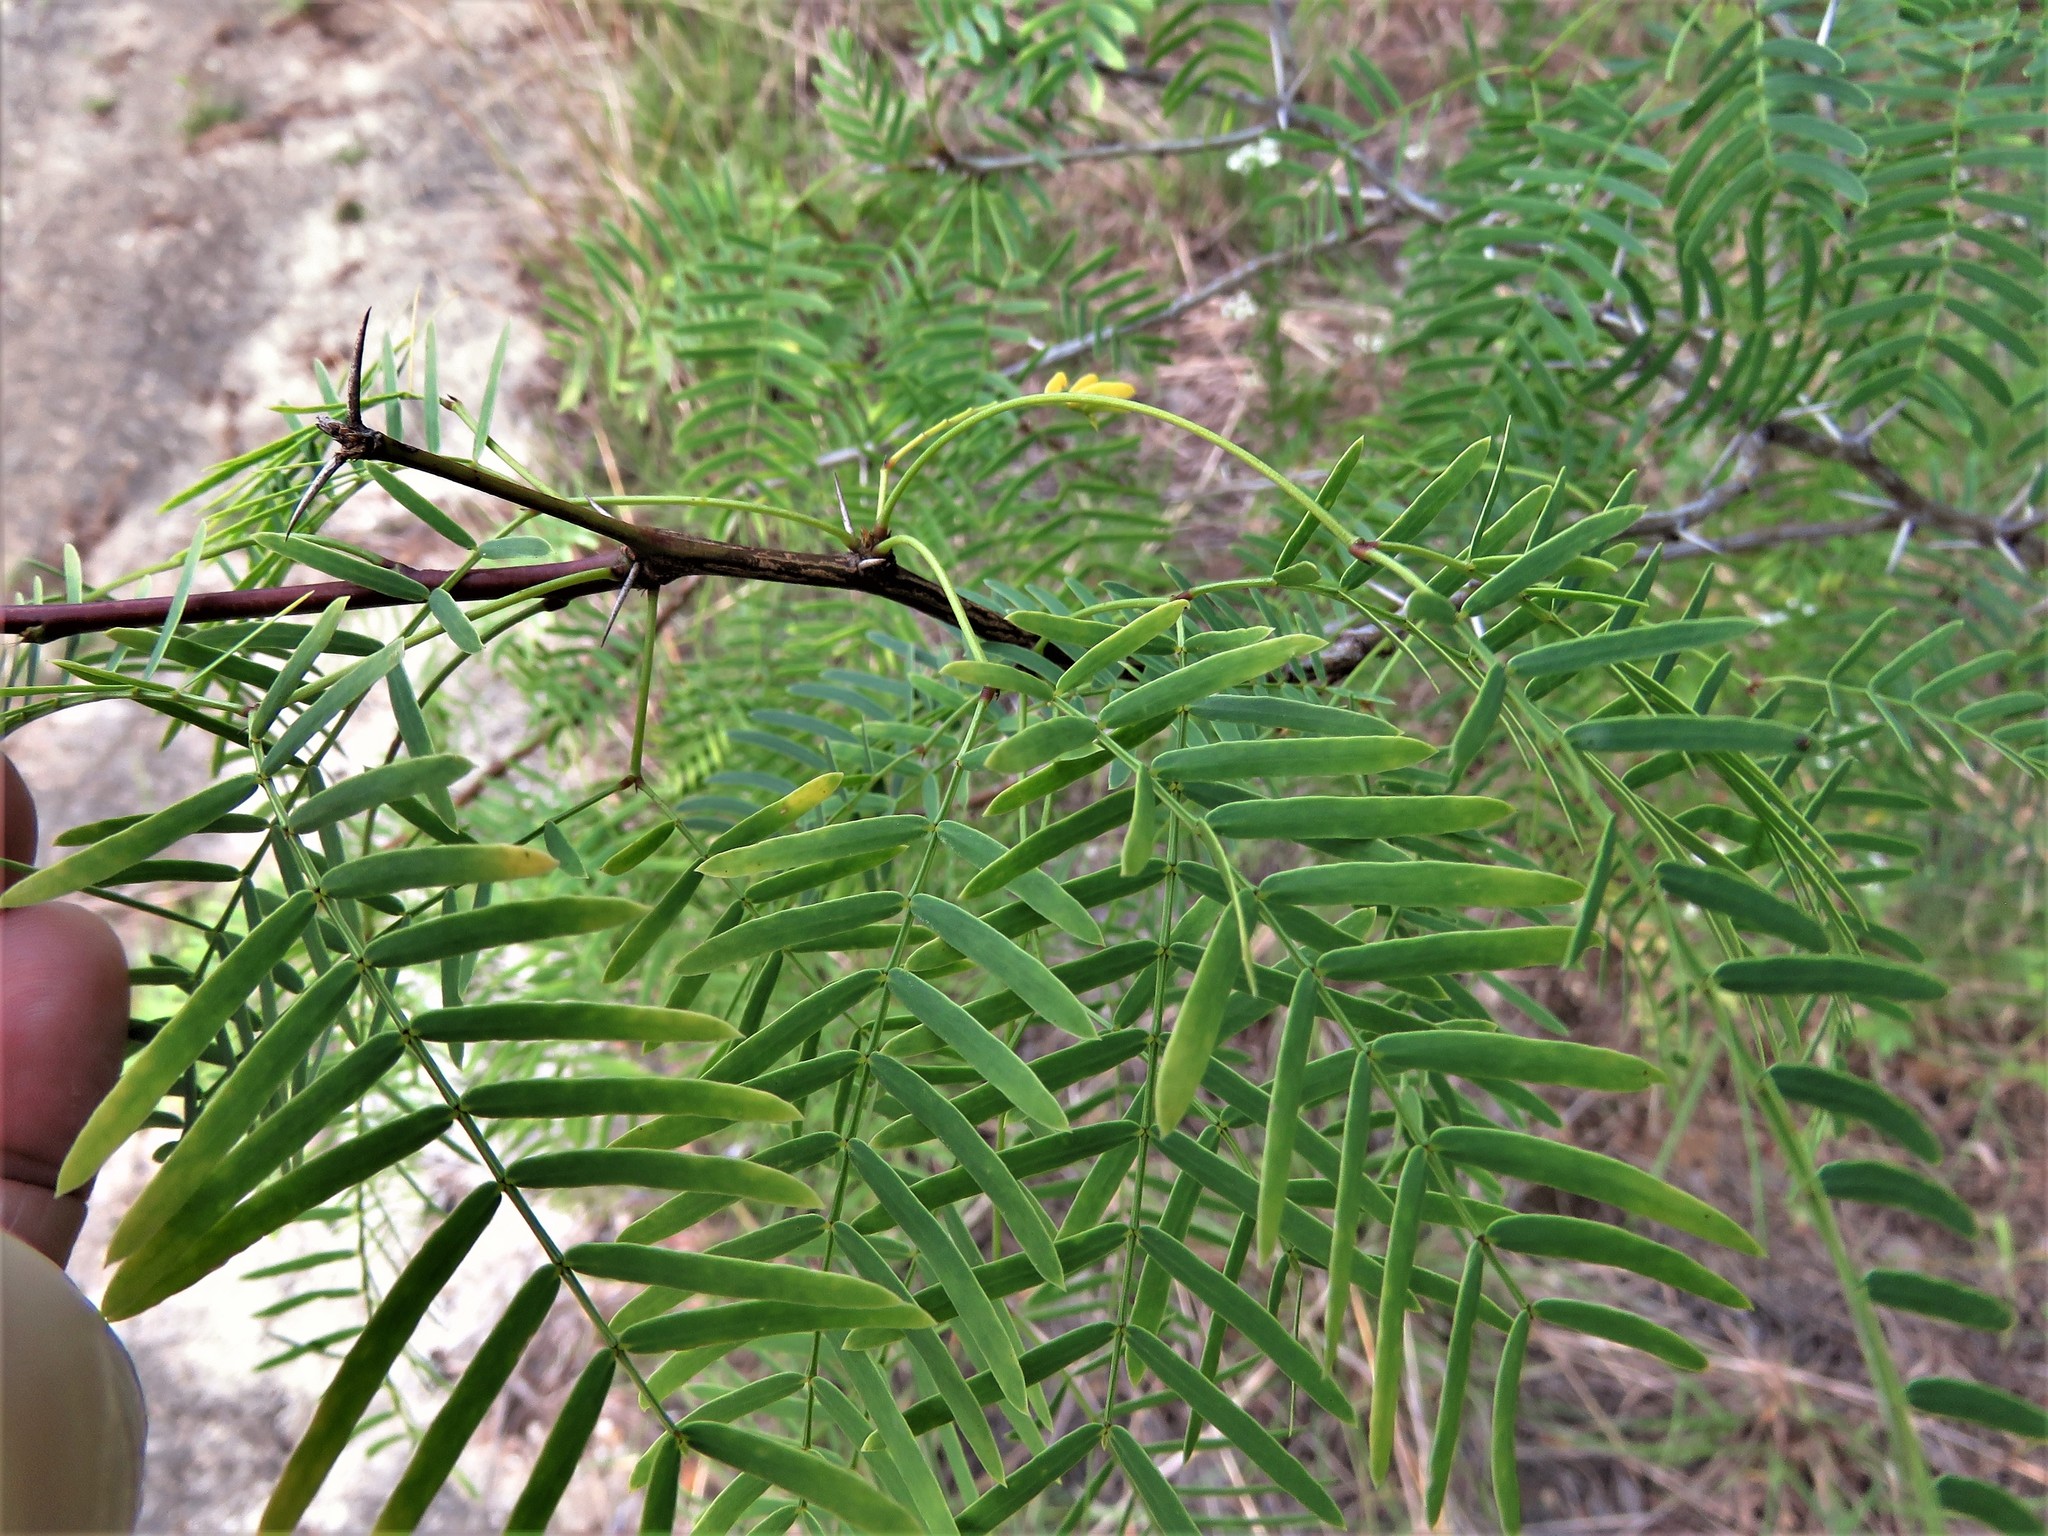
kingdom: Plantae
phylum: Tracheophyta
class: Magnoliopsida
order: Fabales
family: Fabaceae
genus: Prosopis
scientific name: Prosopis glandulosa
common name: Honey mesquite
